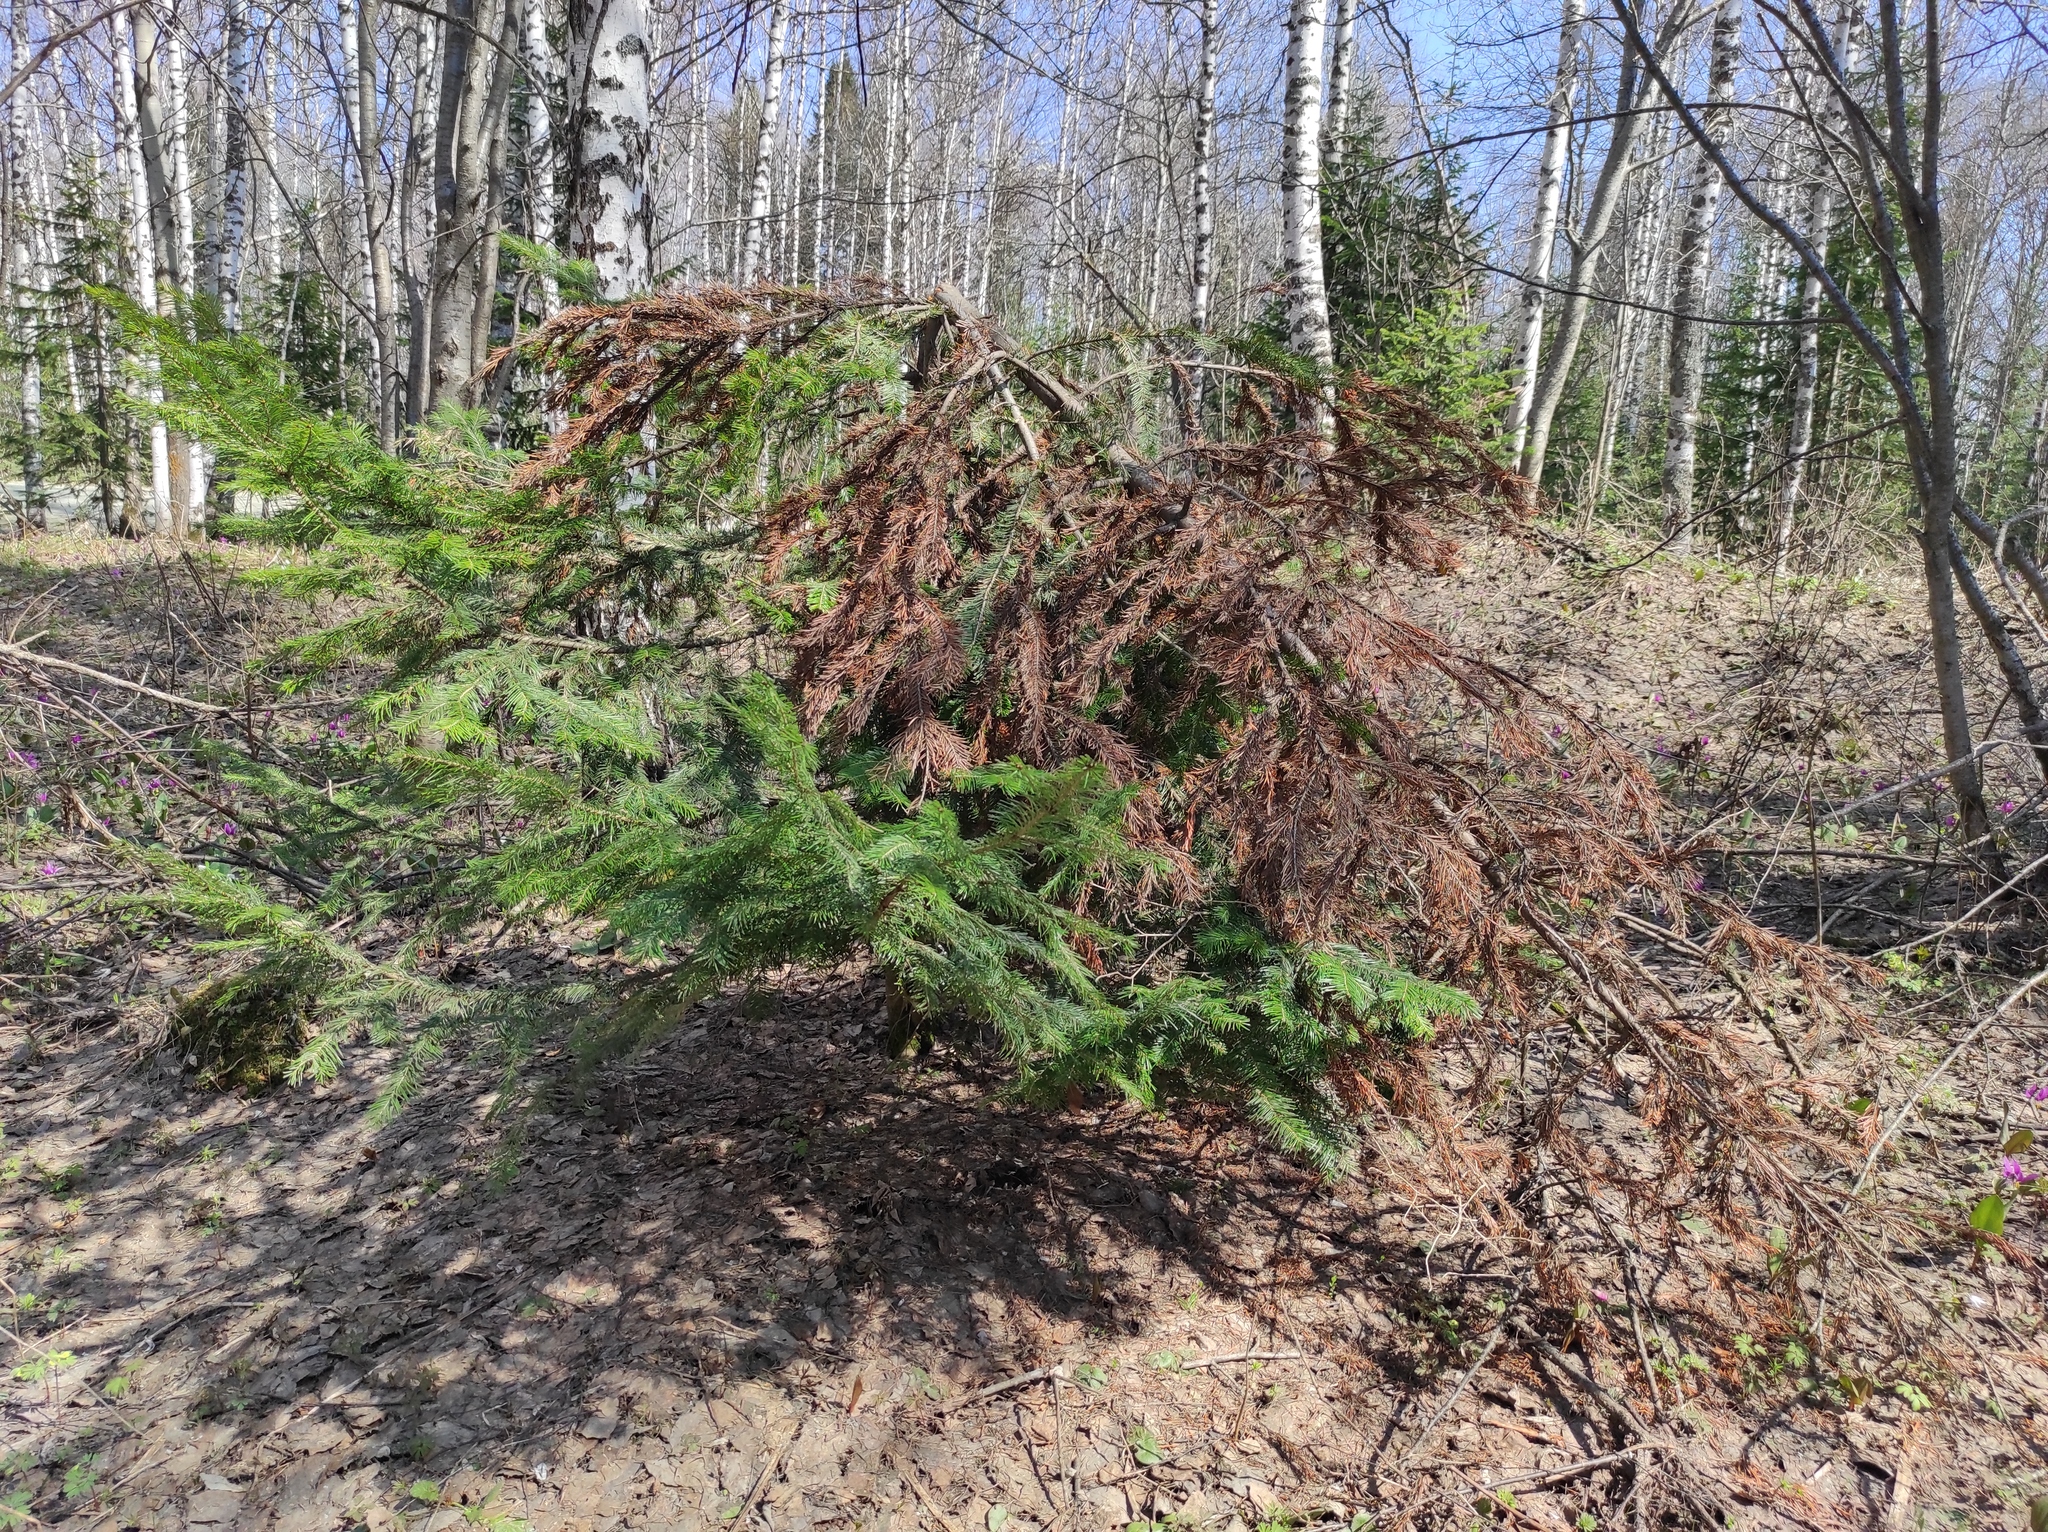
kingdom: Plantae
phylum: Tracheophyta
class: Pinopsida
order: Pinales
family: Pinaceae
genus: Abies
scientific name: Abies sibirica
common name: Siberian fir
